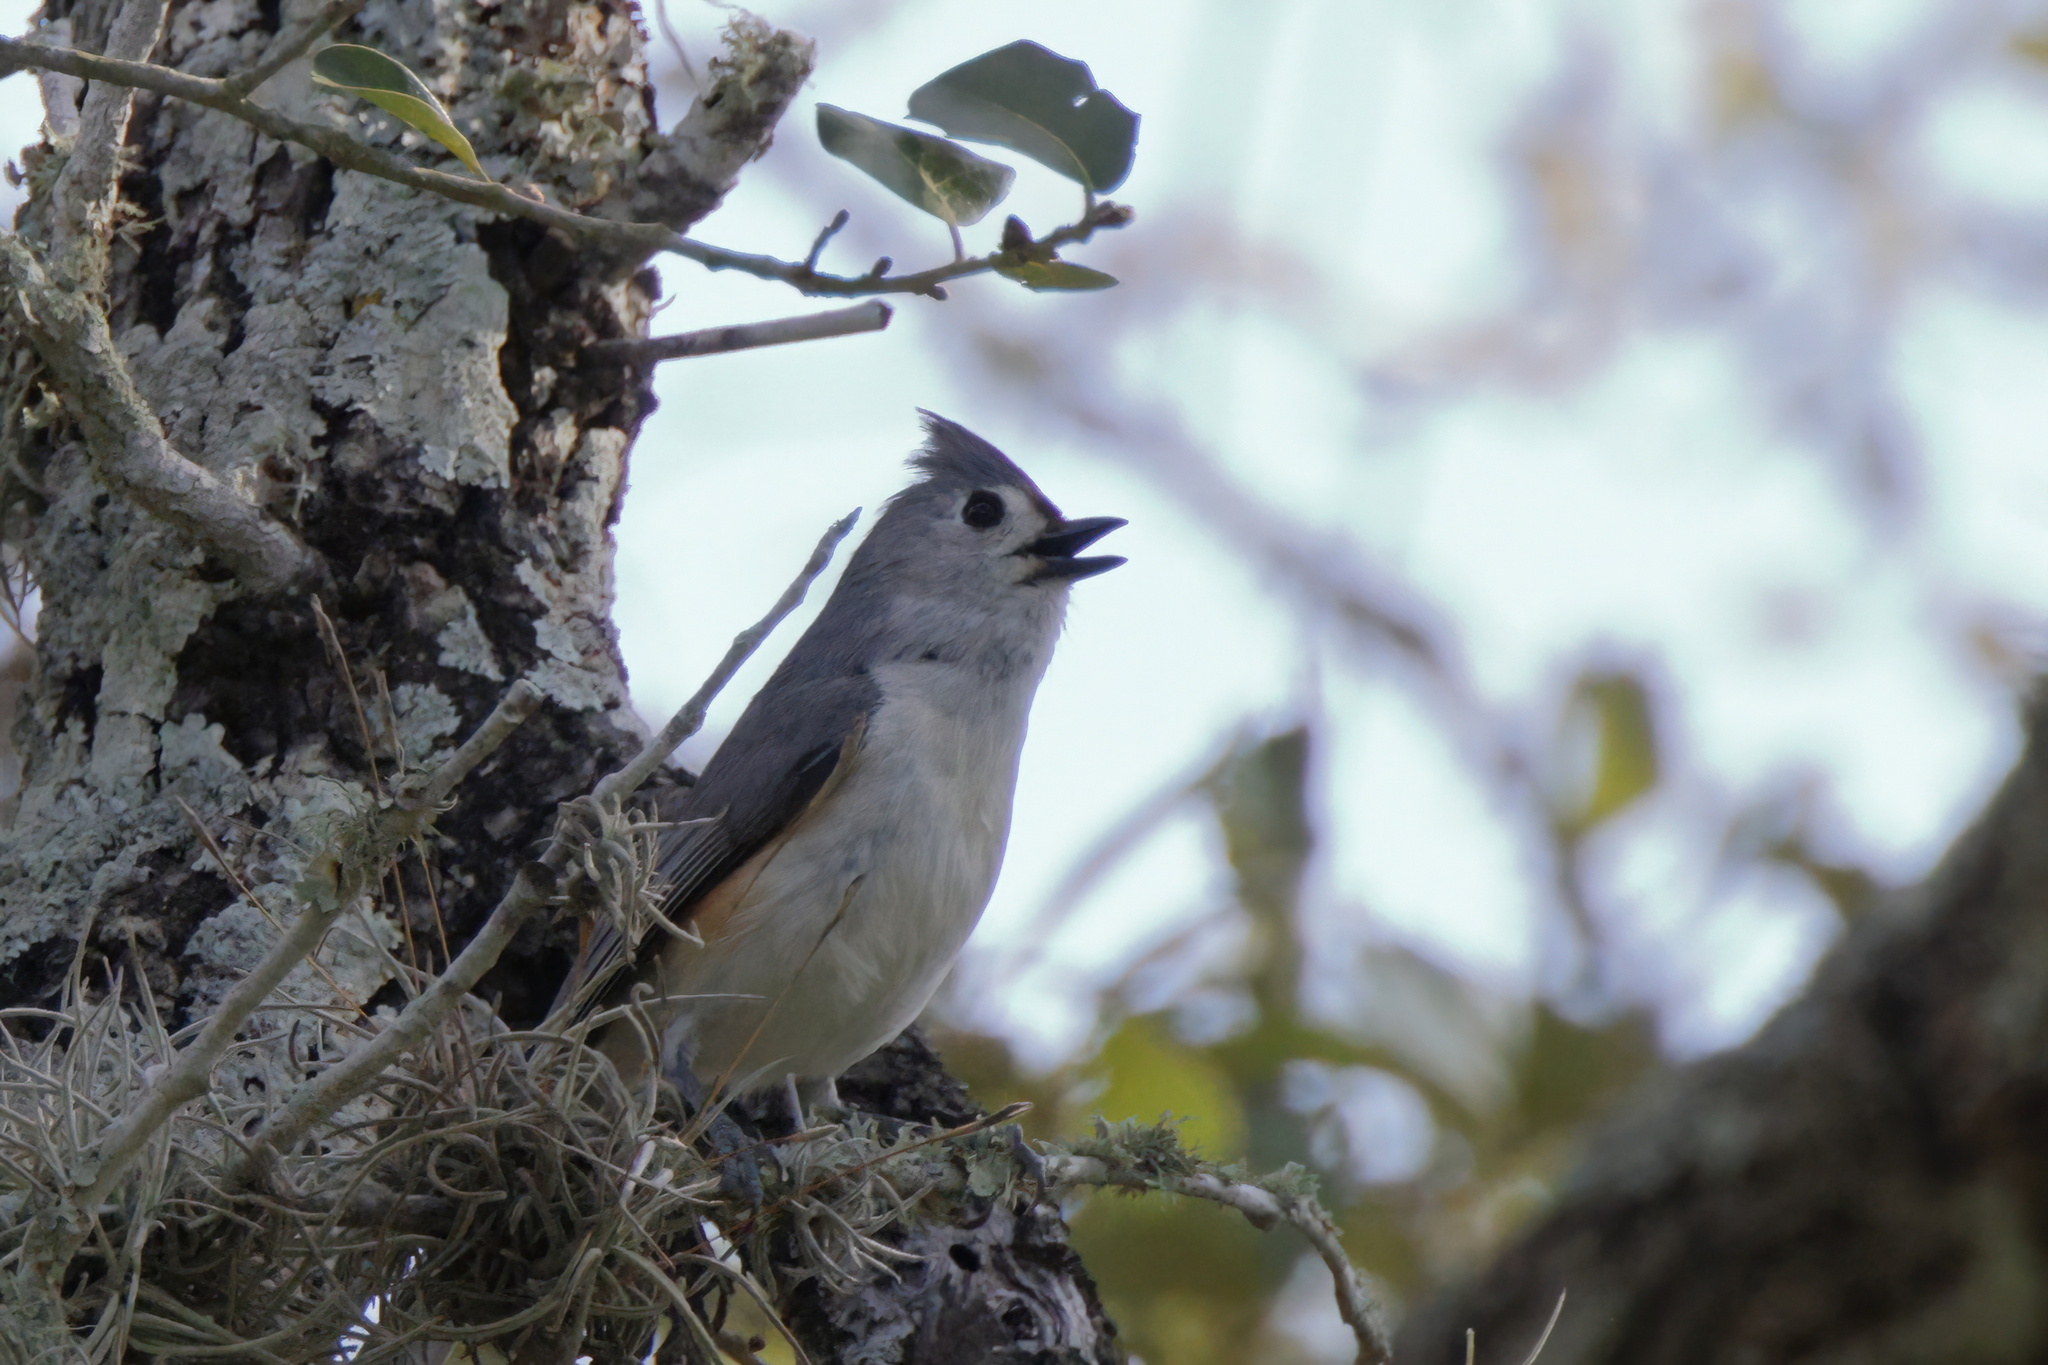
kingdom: Animalia
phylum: Chordata
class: Aves
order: Passeriformes
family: Paridae
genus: Baeolophus
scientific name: Baeolophus bicolor
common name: Tufted titmouse
